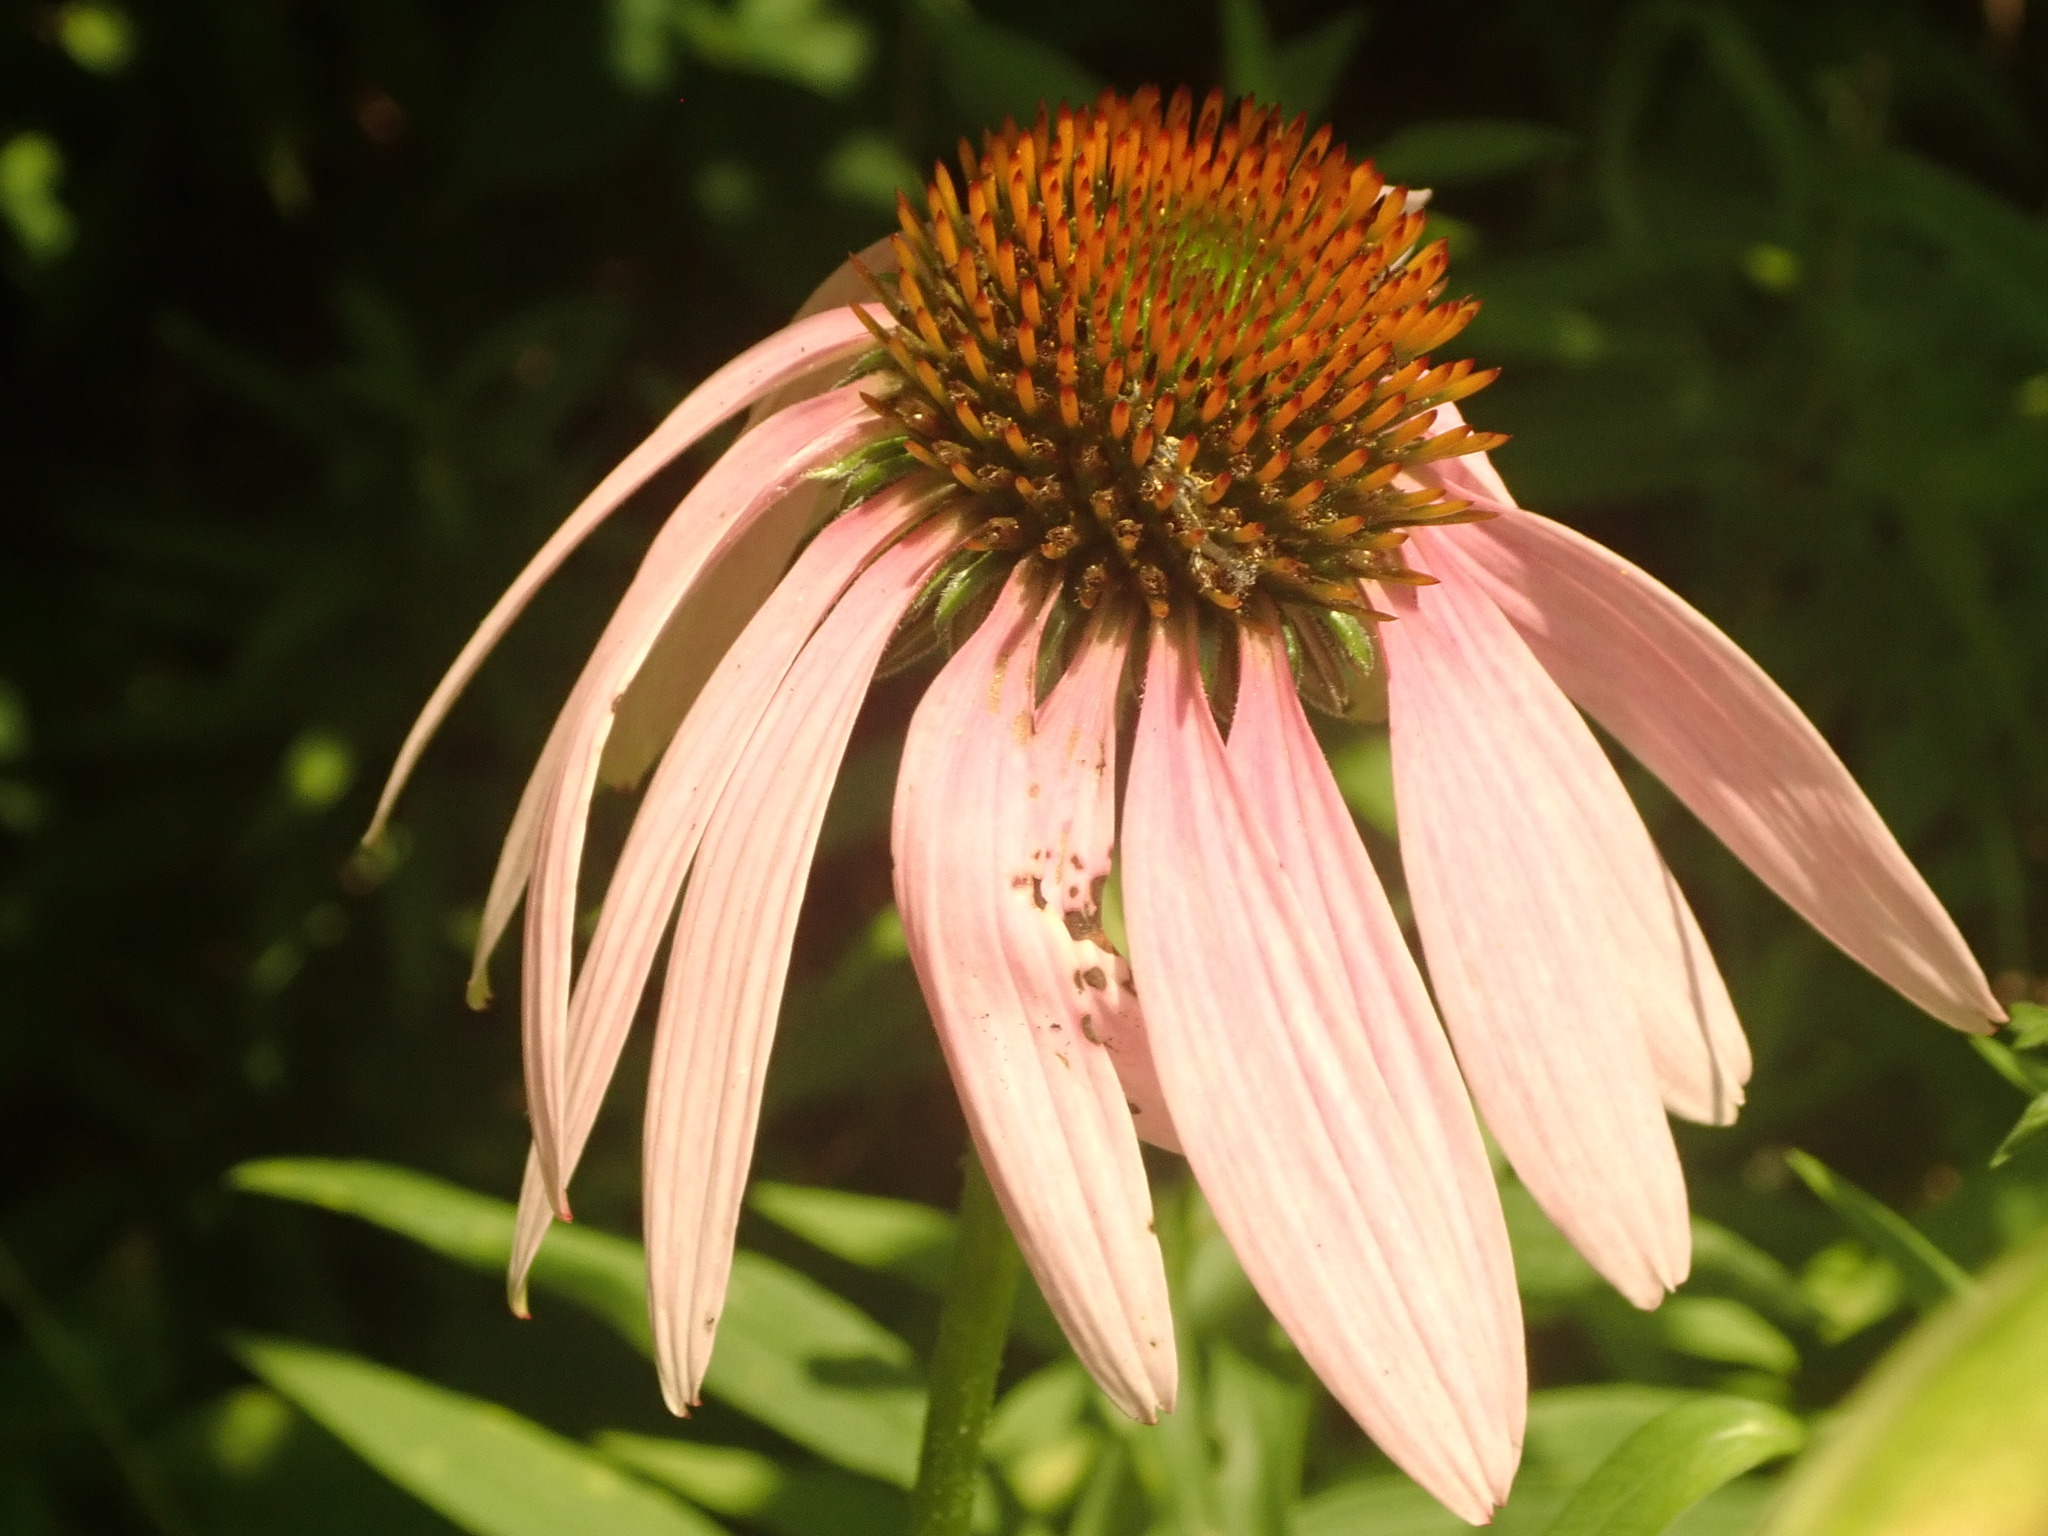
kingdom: Plantae
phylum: Tracheophyta
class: Magnoliopsida
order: Asterales
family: Asteraceae
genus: Echinacea
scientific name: Echinacea purpurea
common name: Broad-leaved purple coneflower
